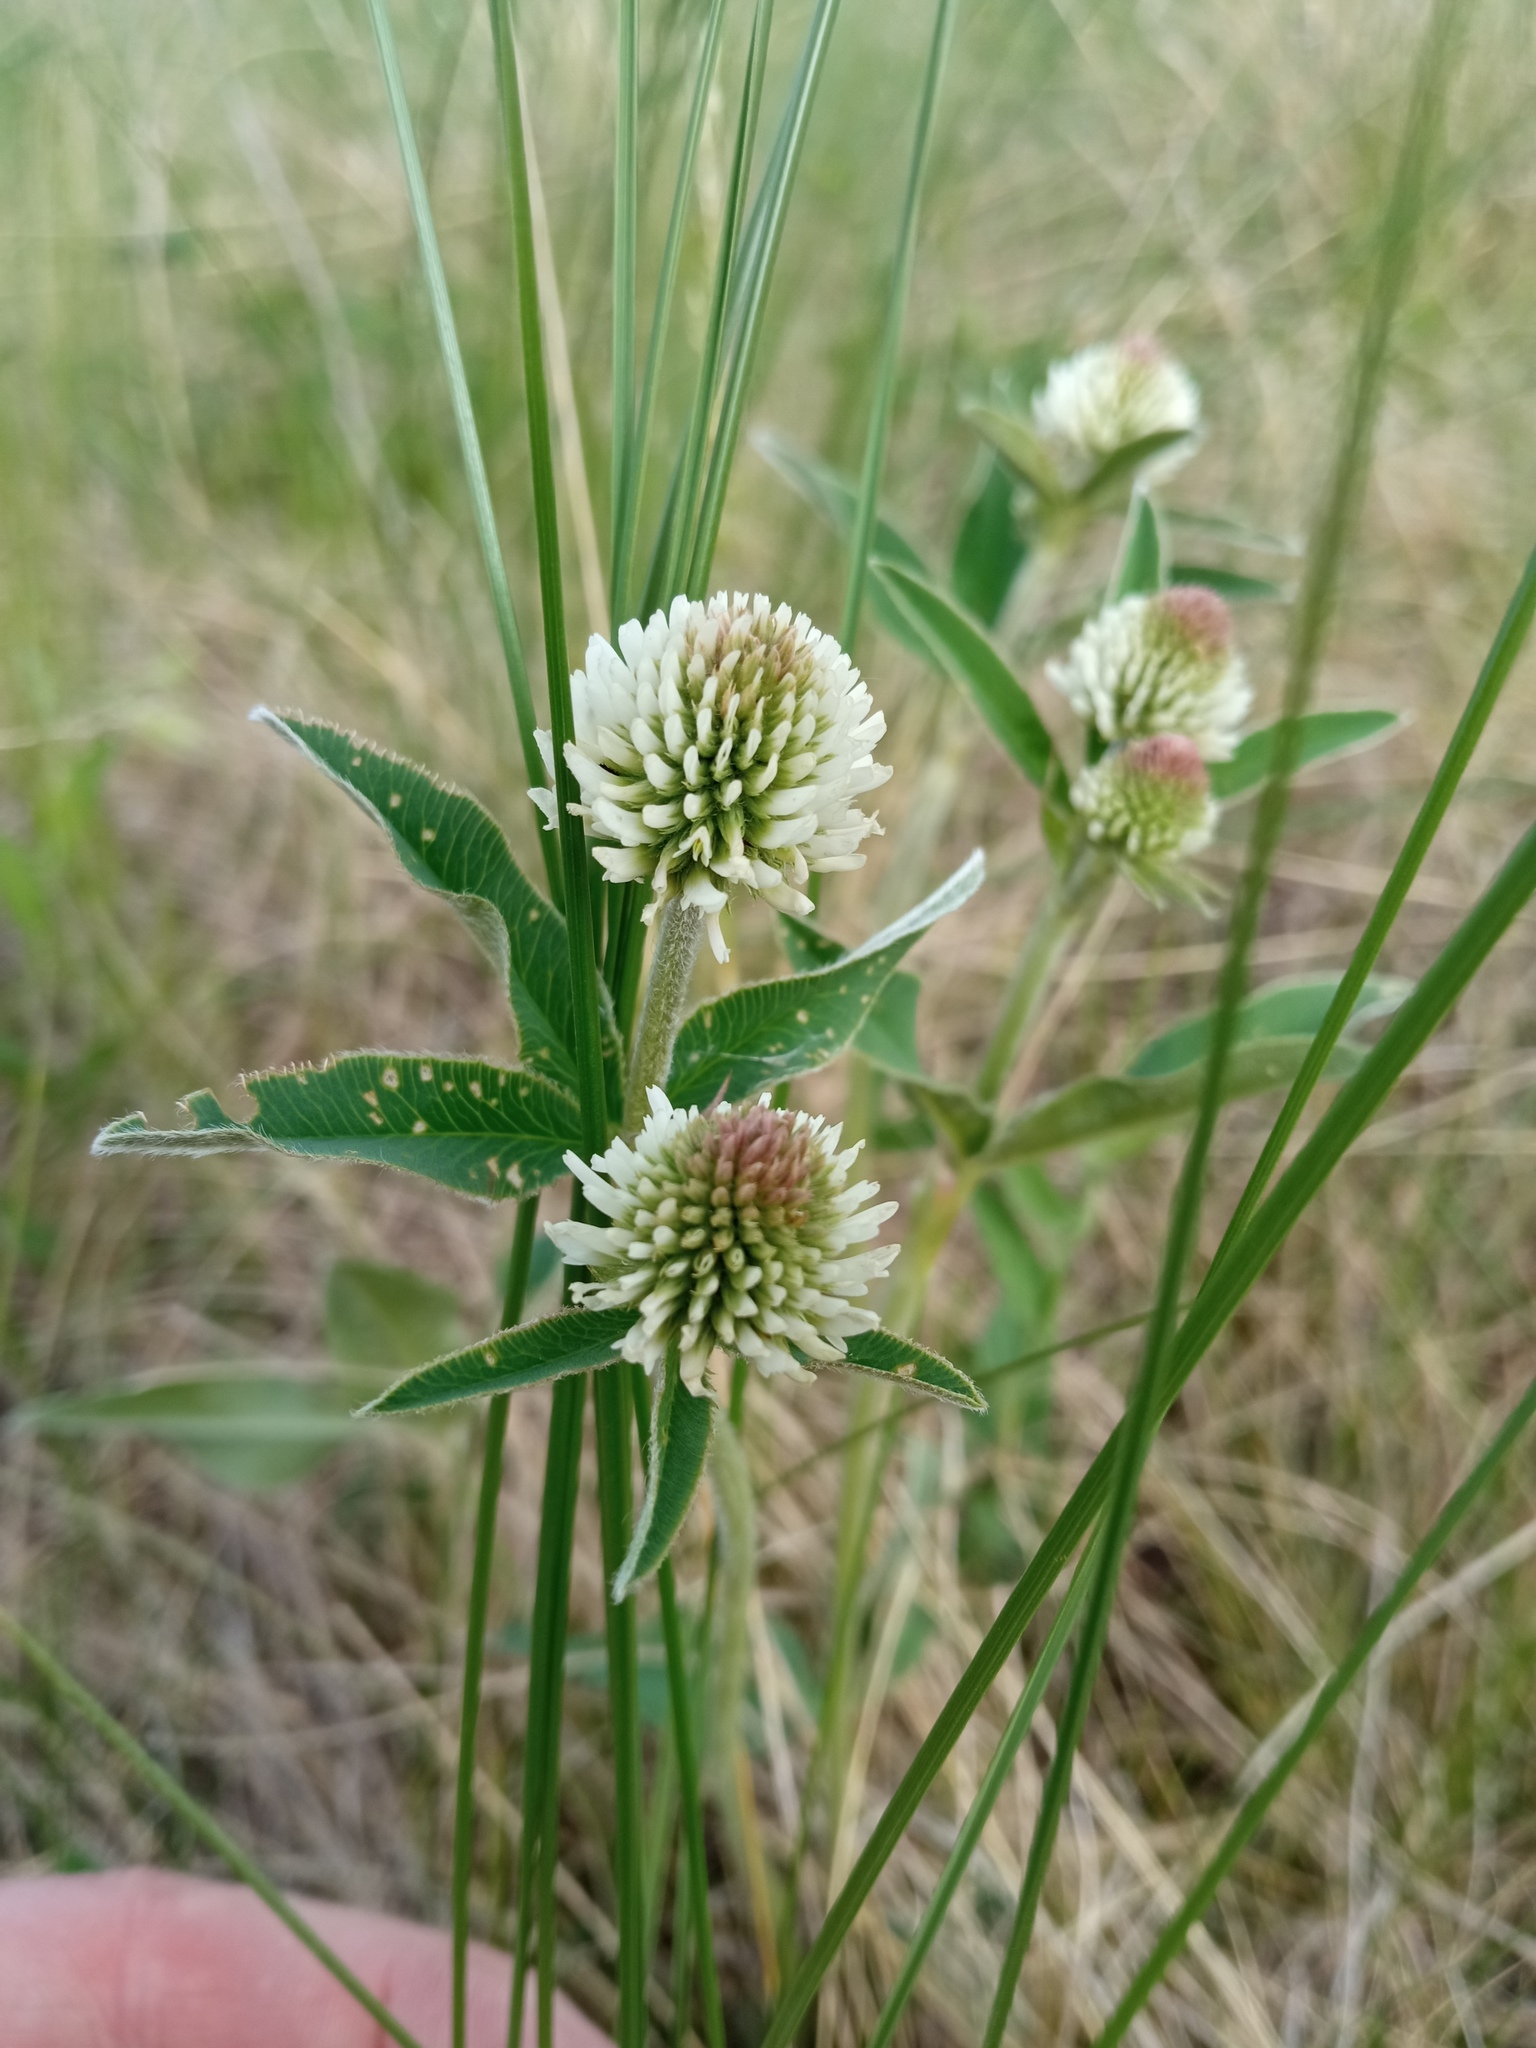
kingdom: Plantae
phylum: Tracheophyta
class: Magnoliopsida
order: Fabales
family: Fabaceae
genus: Trifolium
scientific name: Trifolium montanum
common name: Mountain clover
